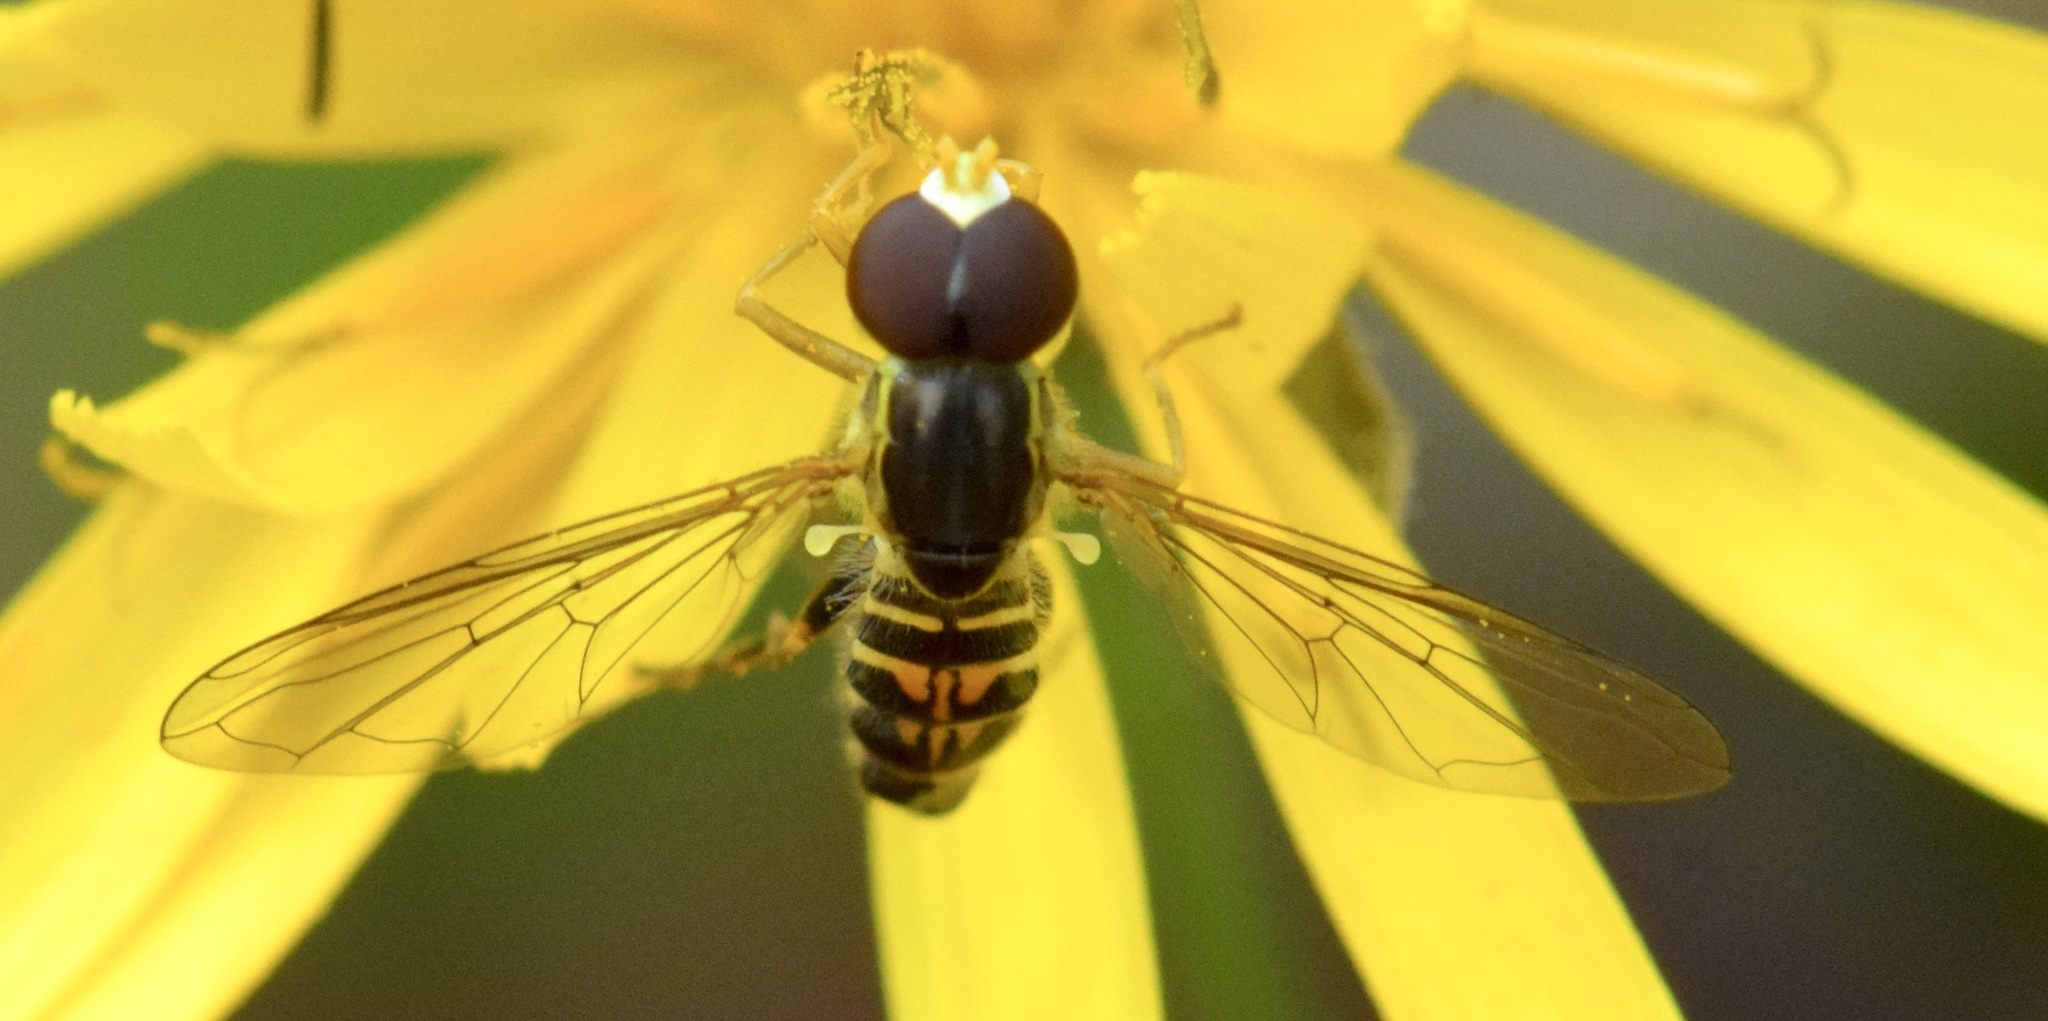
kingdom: Animalia
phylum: Arthropoda
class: Insecta
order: Diptera
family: Syrphidae
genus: Toxomerus
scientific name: Toxomerus geminatus
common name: Eastern calligrapher
